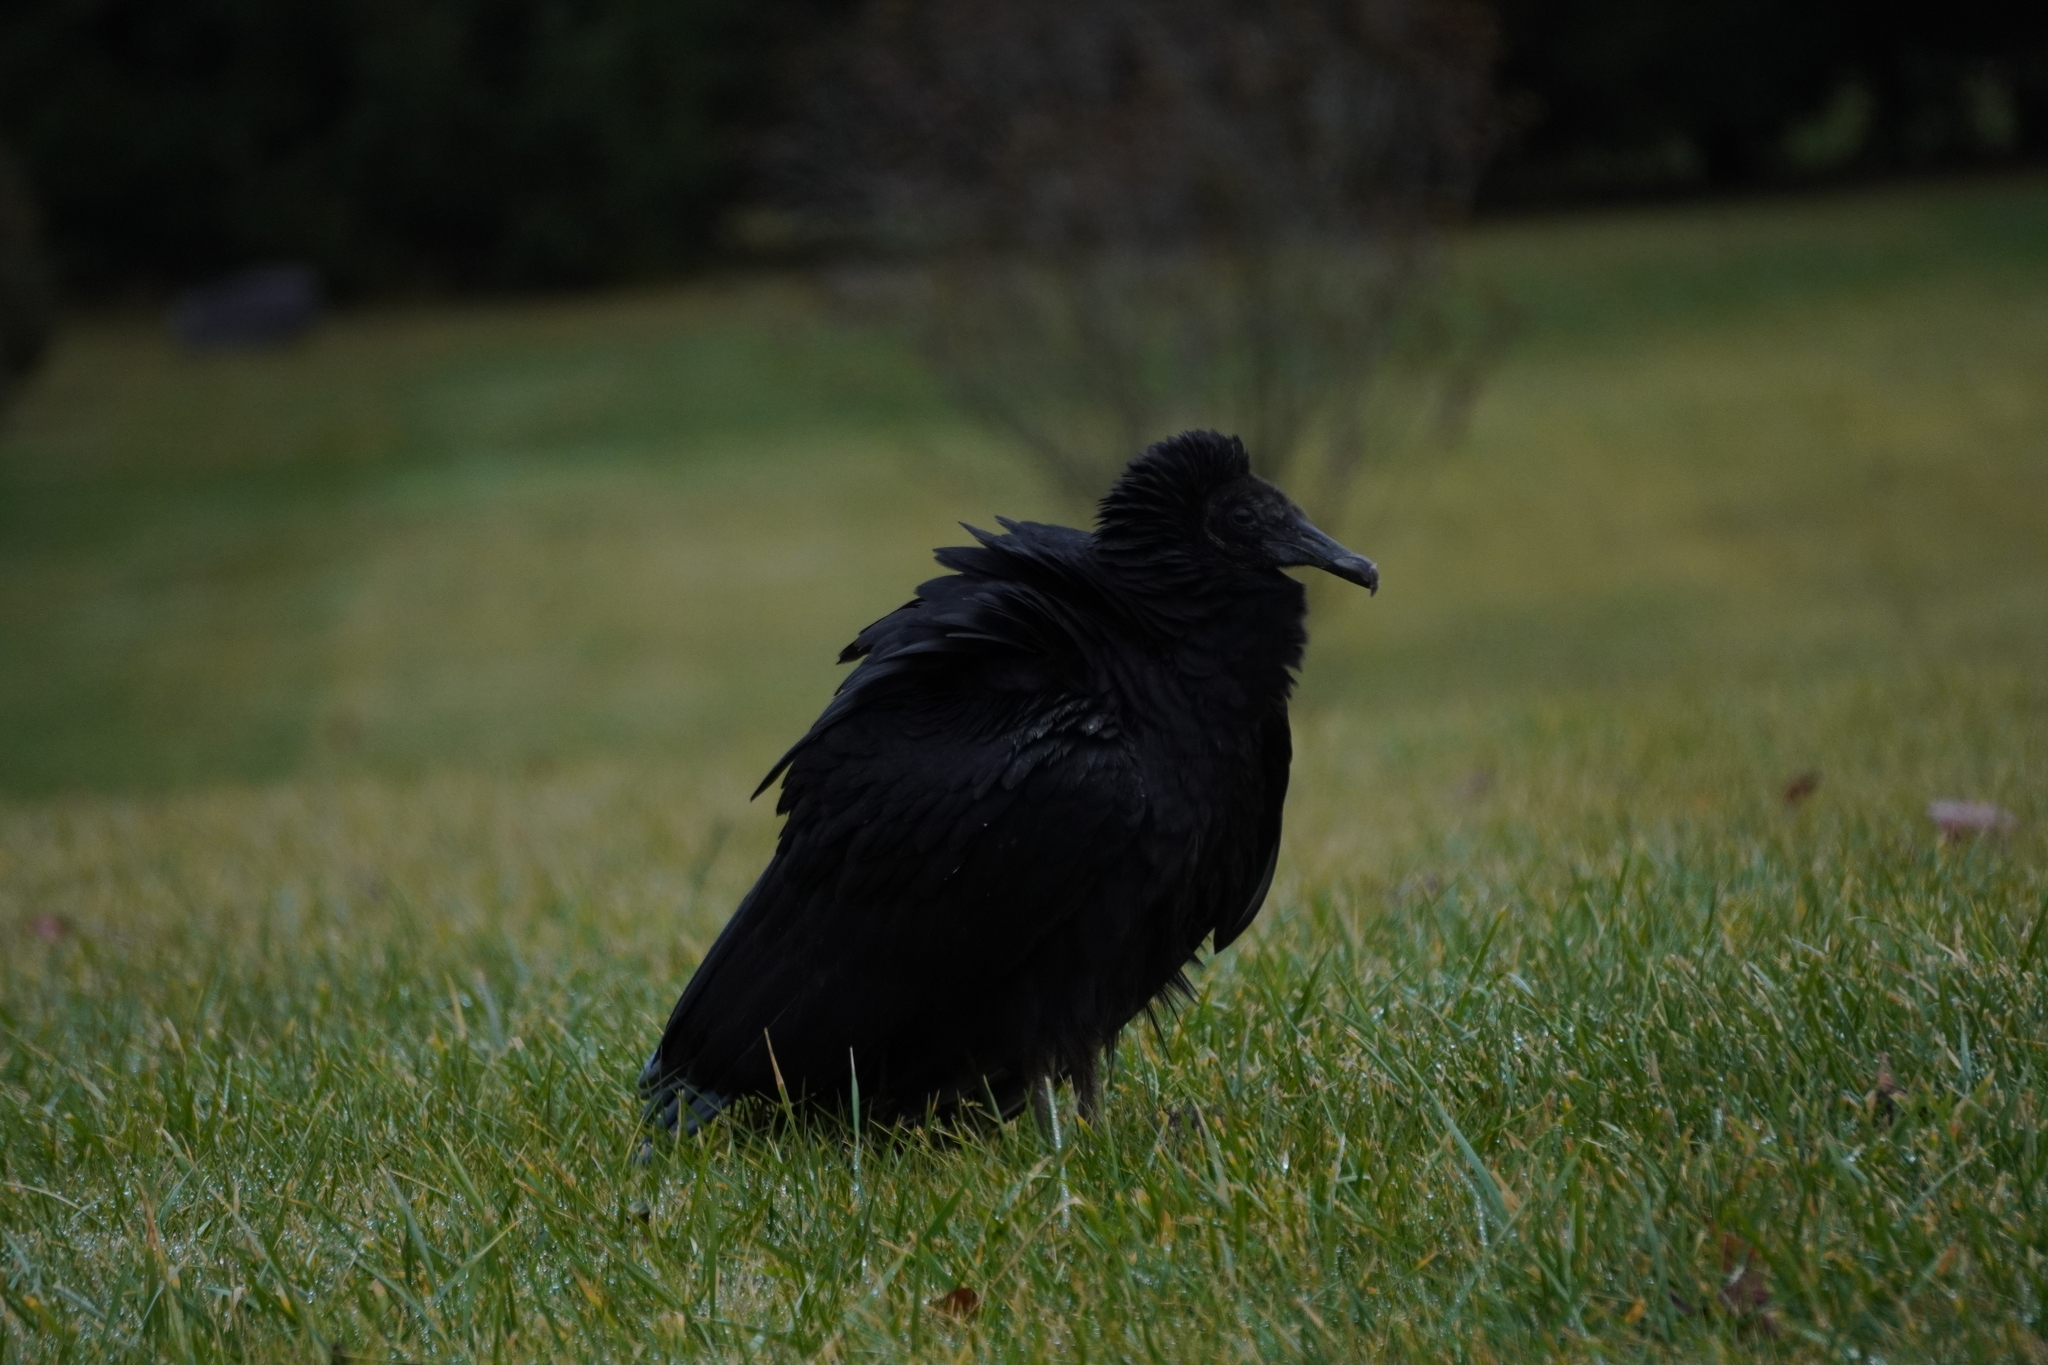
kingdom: Animalia
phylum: Chordata
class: Aves
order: Accipitriformes
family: Cathartidae
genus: Coragyps
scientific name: Coragyps atratus
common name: Black vulture
